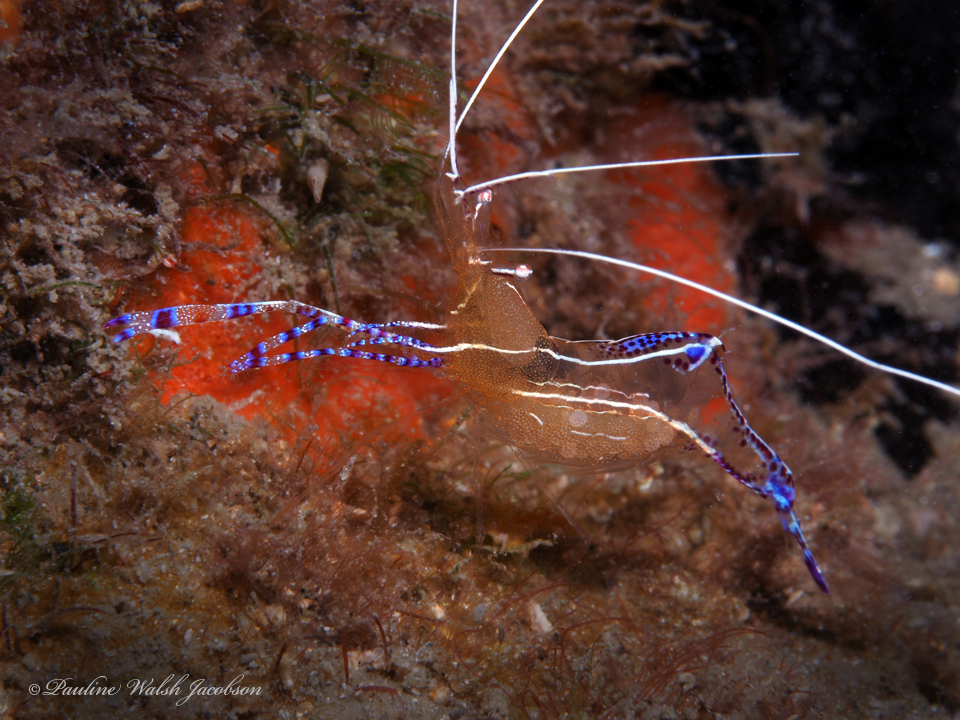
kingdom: Animalia
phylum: Arthropoda
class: Malacostraca
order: Decapoda
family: Palaemonidae
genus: Ancylomenes
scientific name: Ancylomenes pedersoni
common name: Pederson's cleaning shrimp
